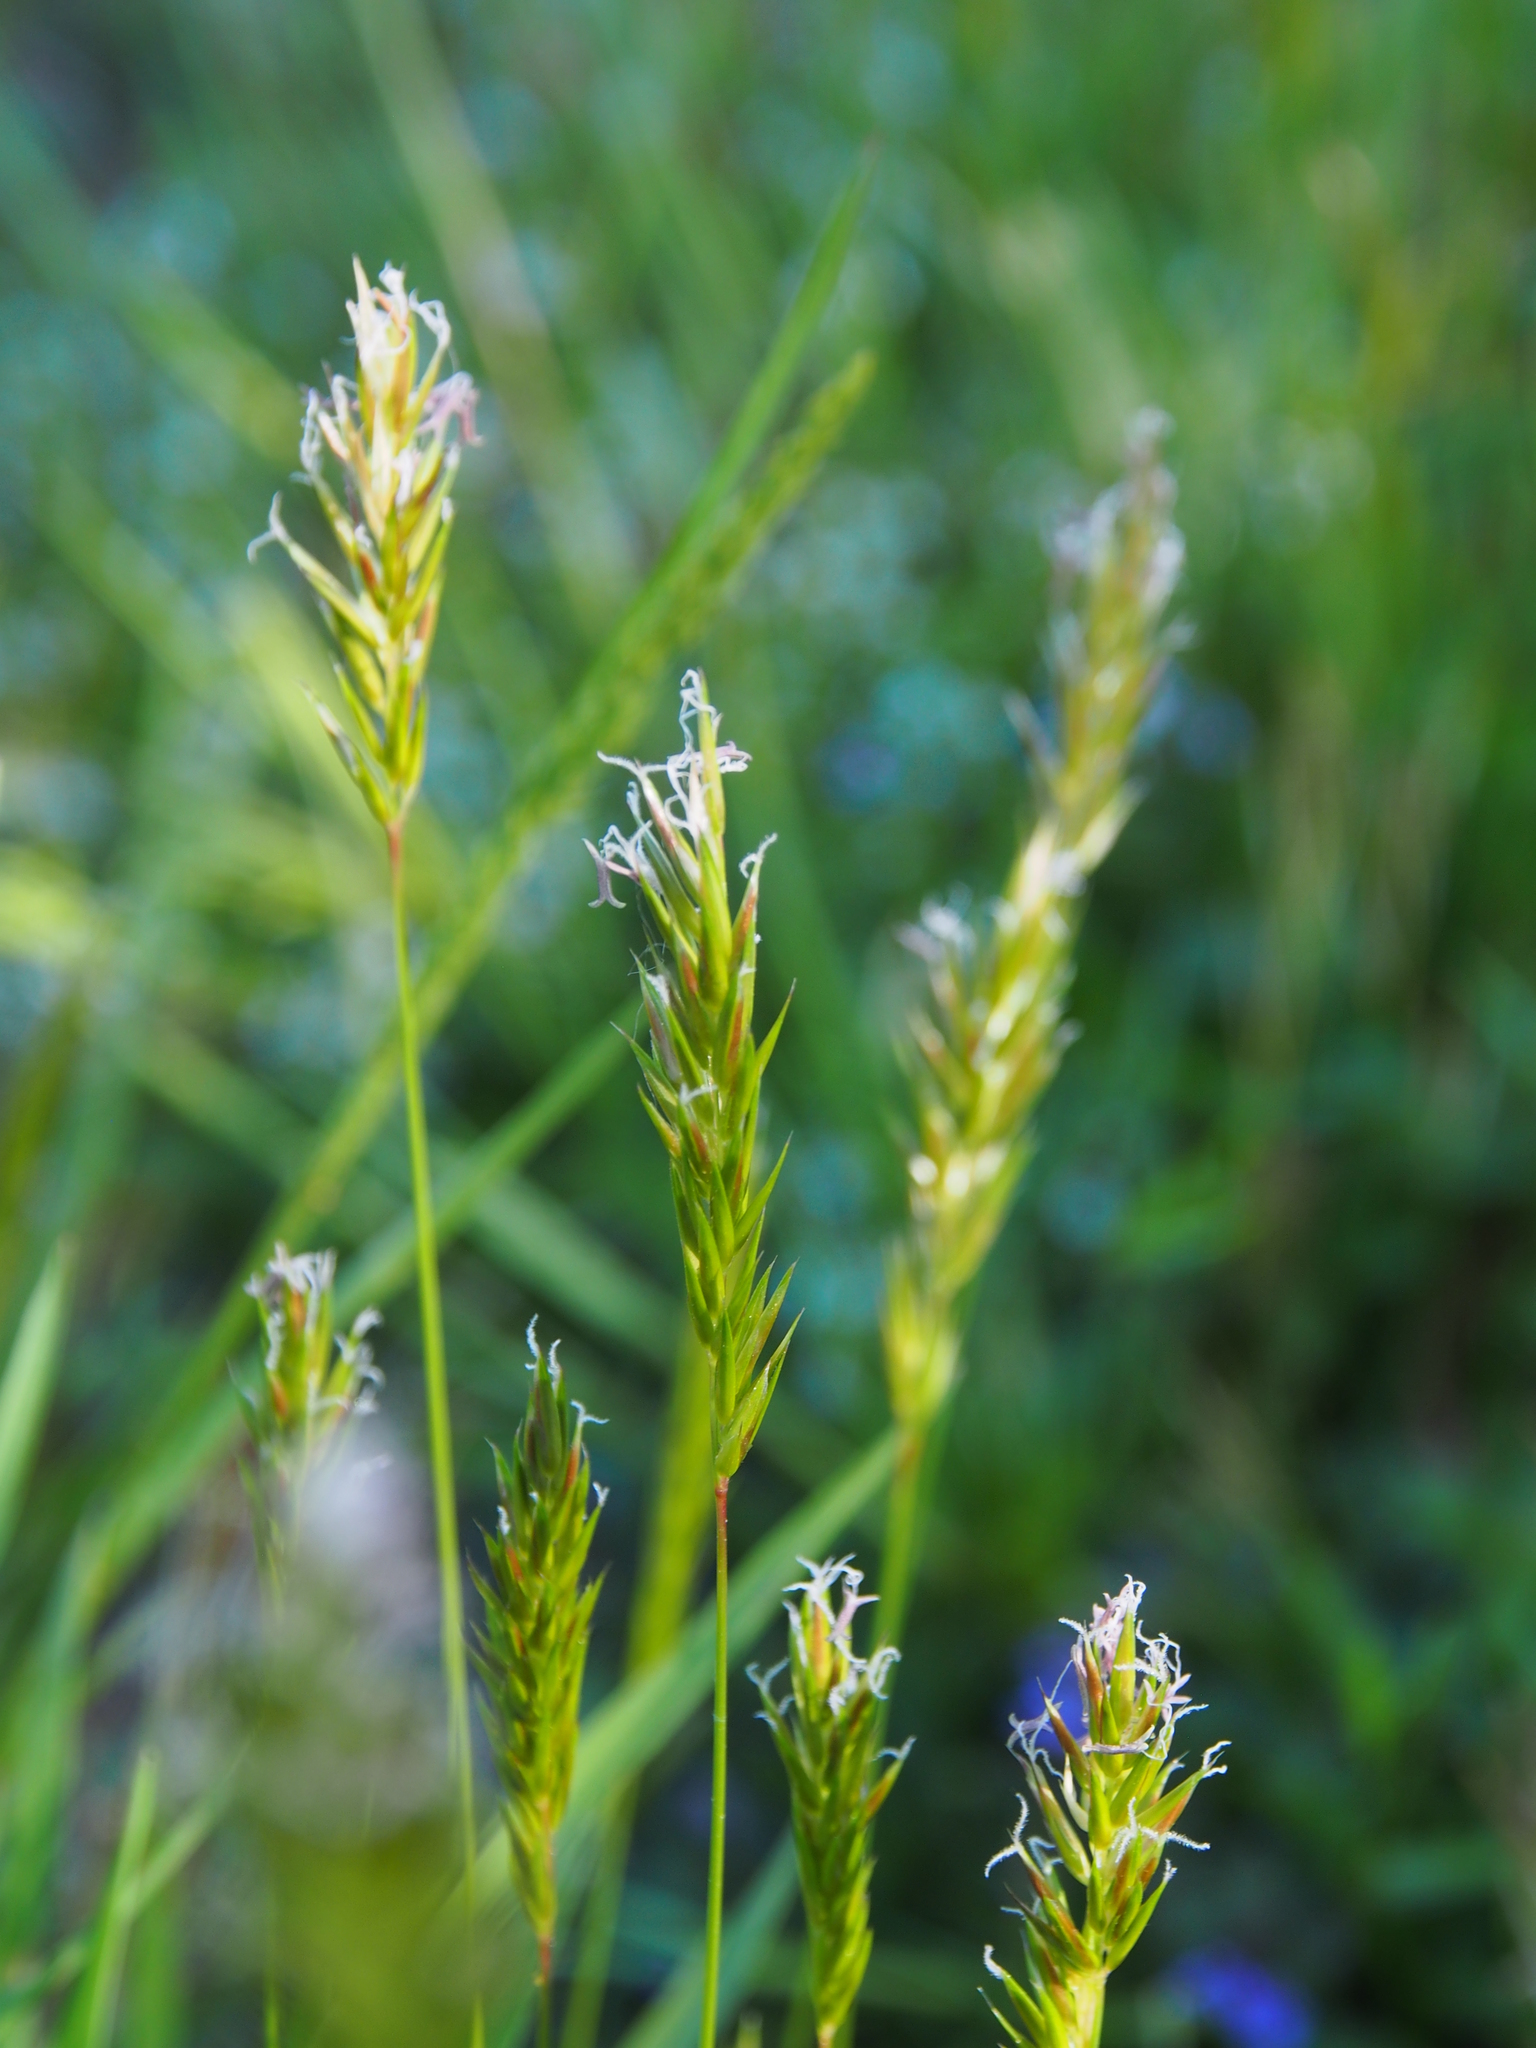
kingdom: Plantae
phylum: Tracheophyta
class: Liliopsida
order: Poales
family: Poaceae
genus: Anthoxanthum
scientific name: Anthoxanthum odoratum
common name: Sweet vernalgrass
